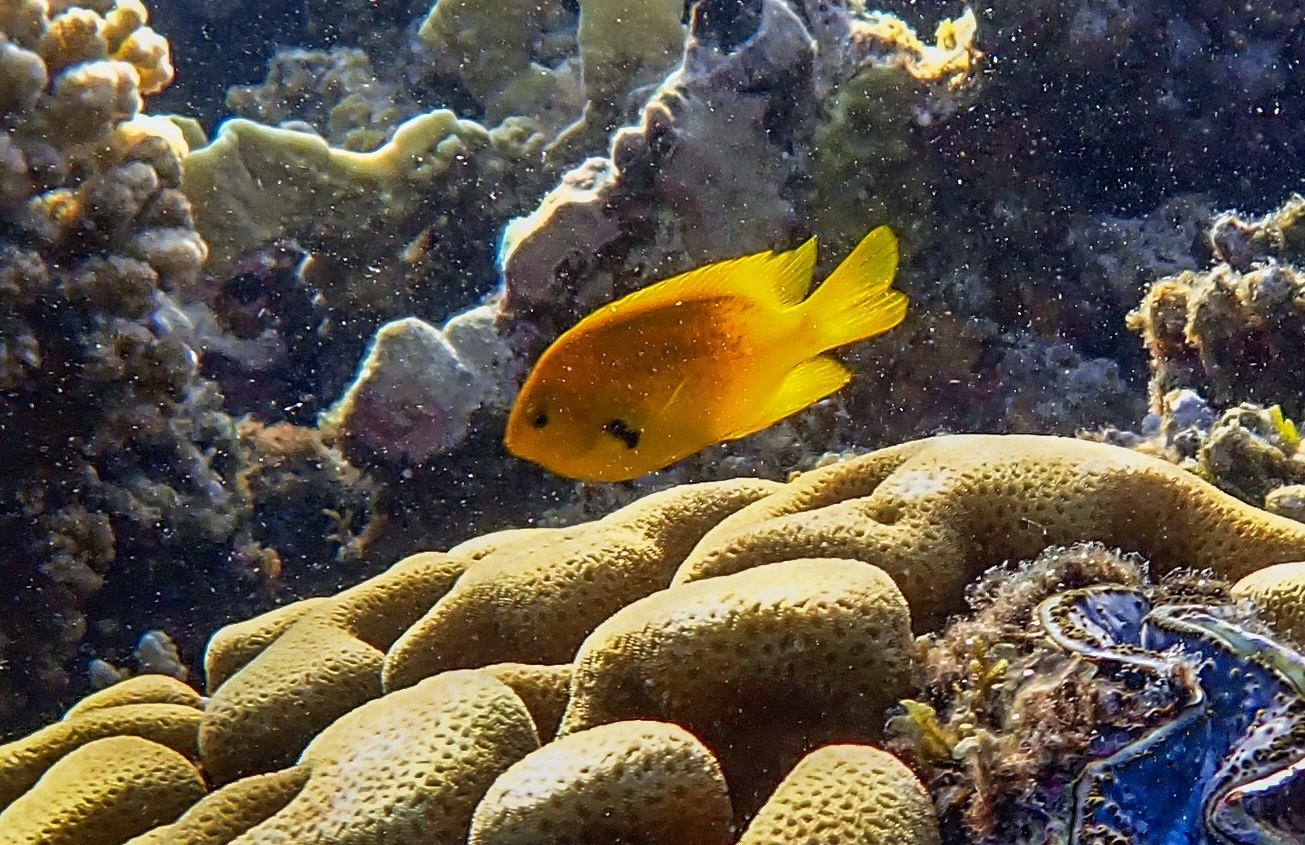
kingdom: Animalia
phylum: Chordata
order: Perciformes
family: Pomacentridae
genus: Pomacentrus
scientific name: Pomacentrus sulfureus
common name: Sulfur damsel
